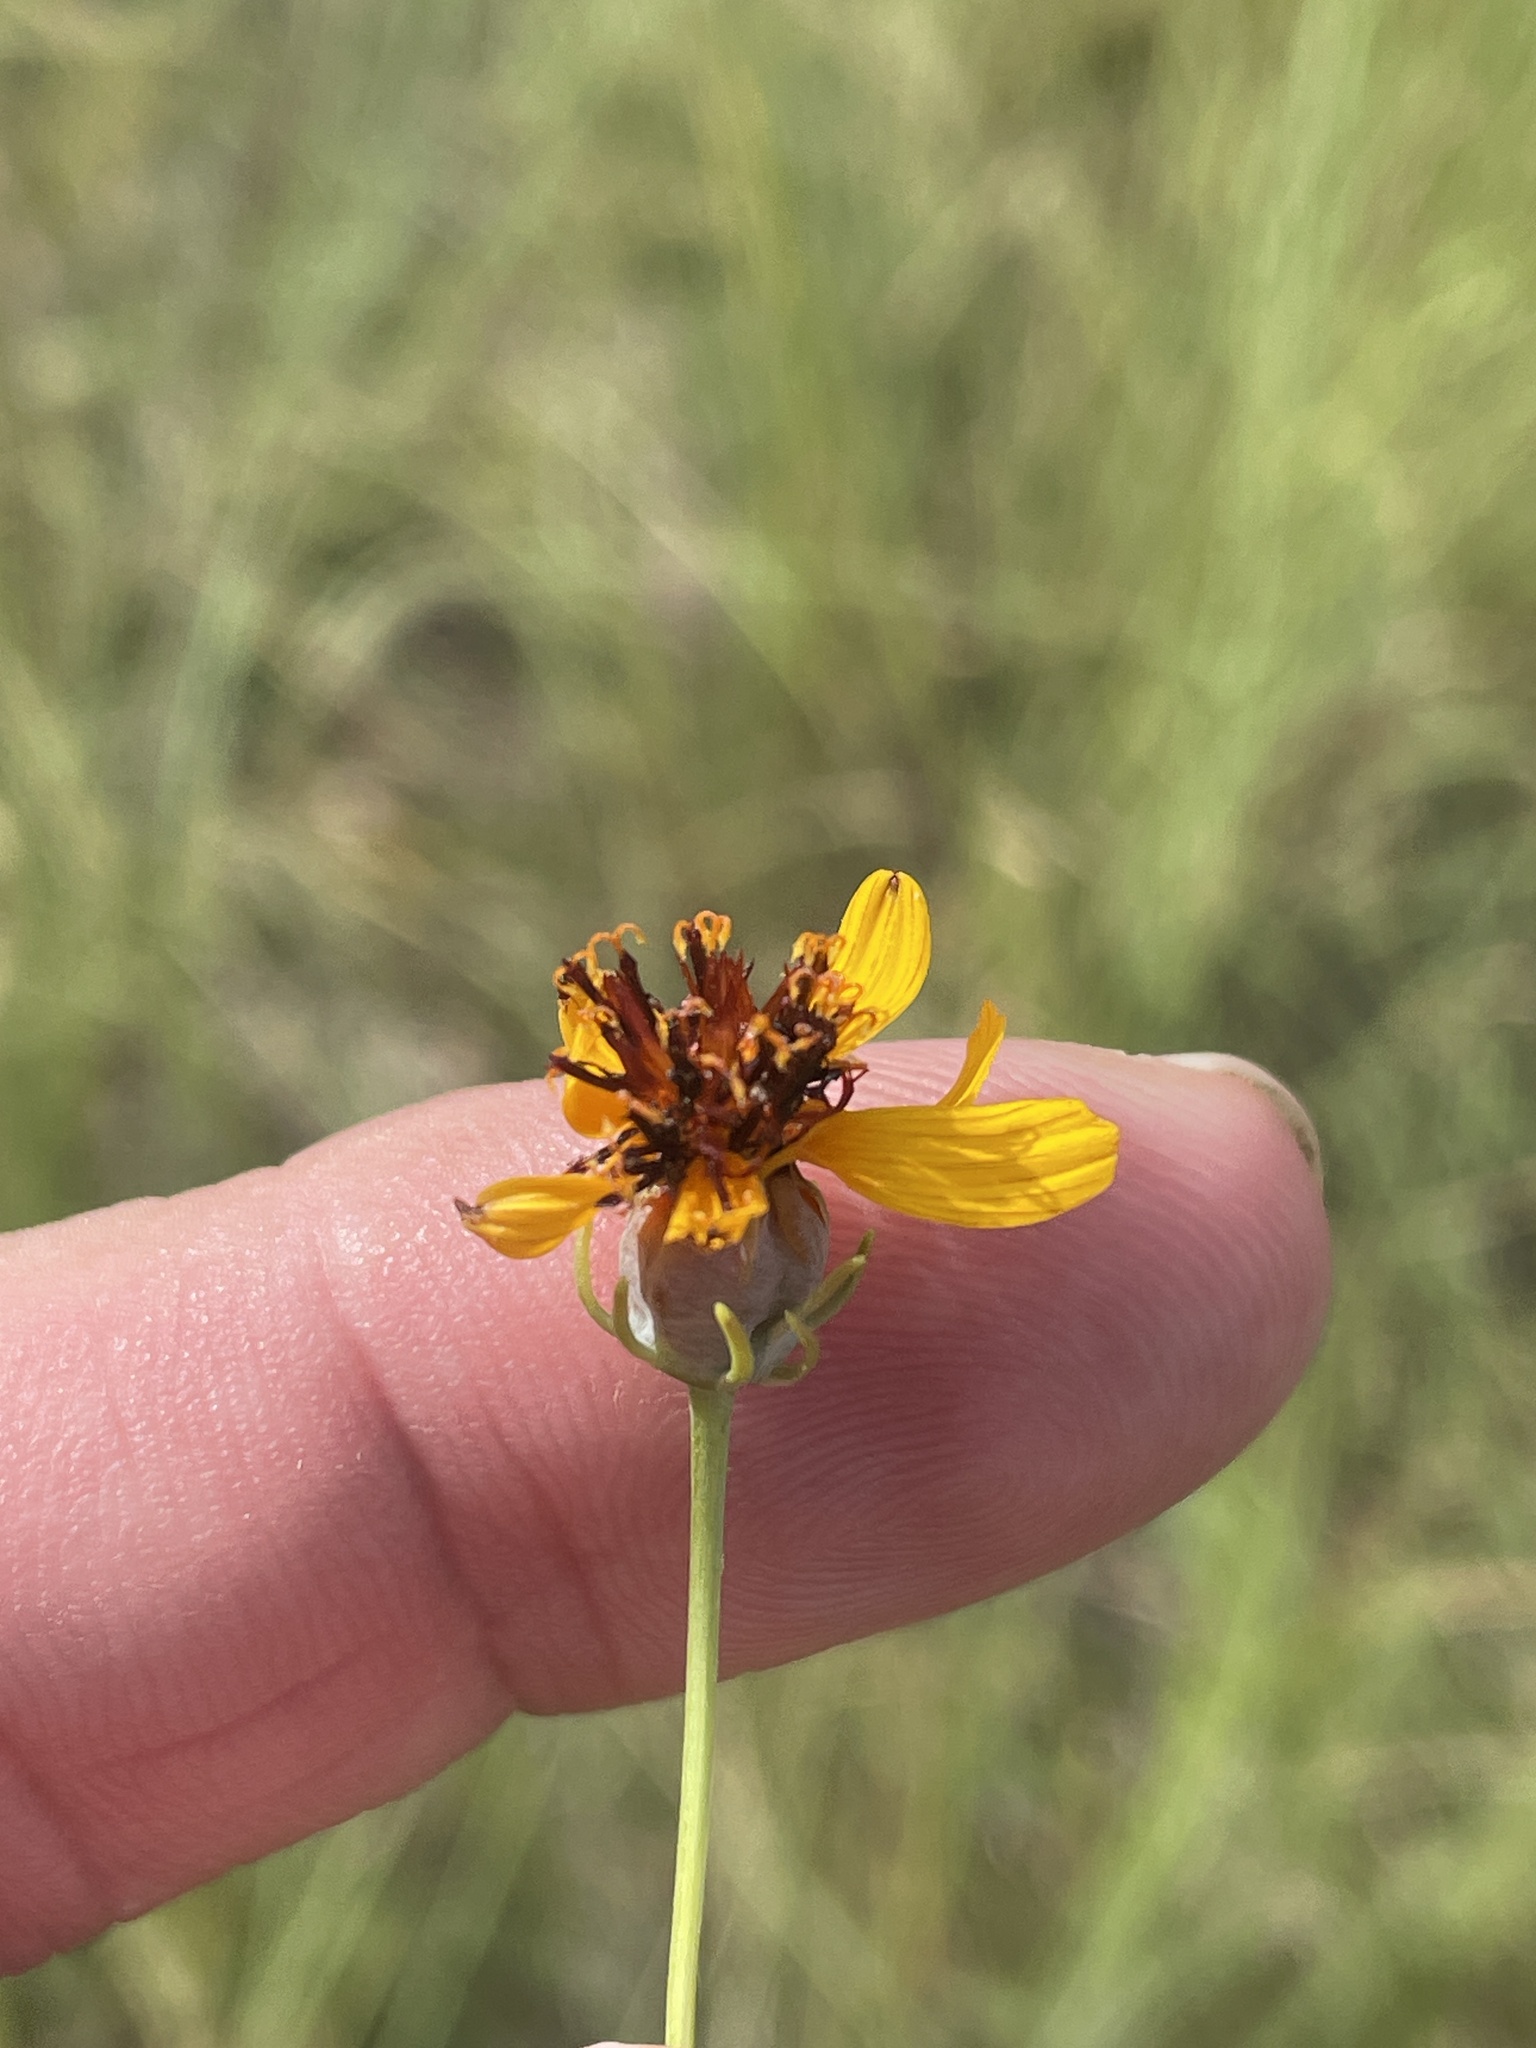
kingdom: Plantae
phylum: Tracheophyta
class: Magnoliopsida
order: Asterales
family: Asteraceae
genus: Thelesperma
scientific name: Thelesperma filifolium
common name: Stiff greenthread
